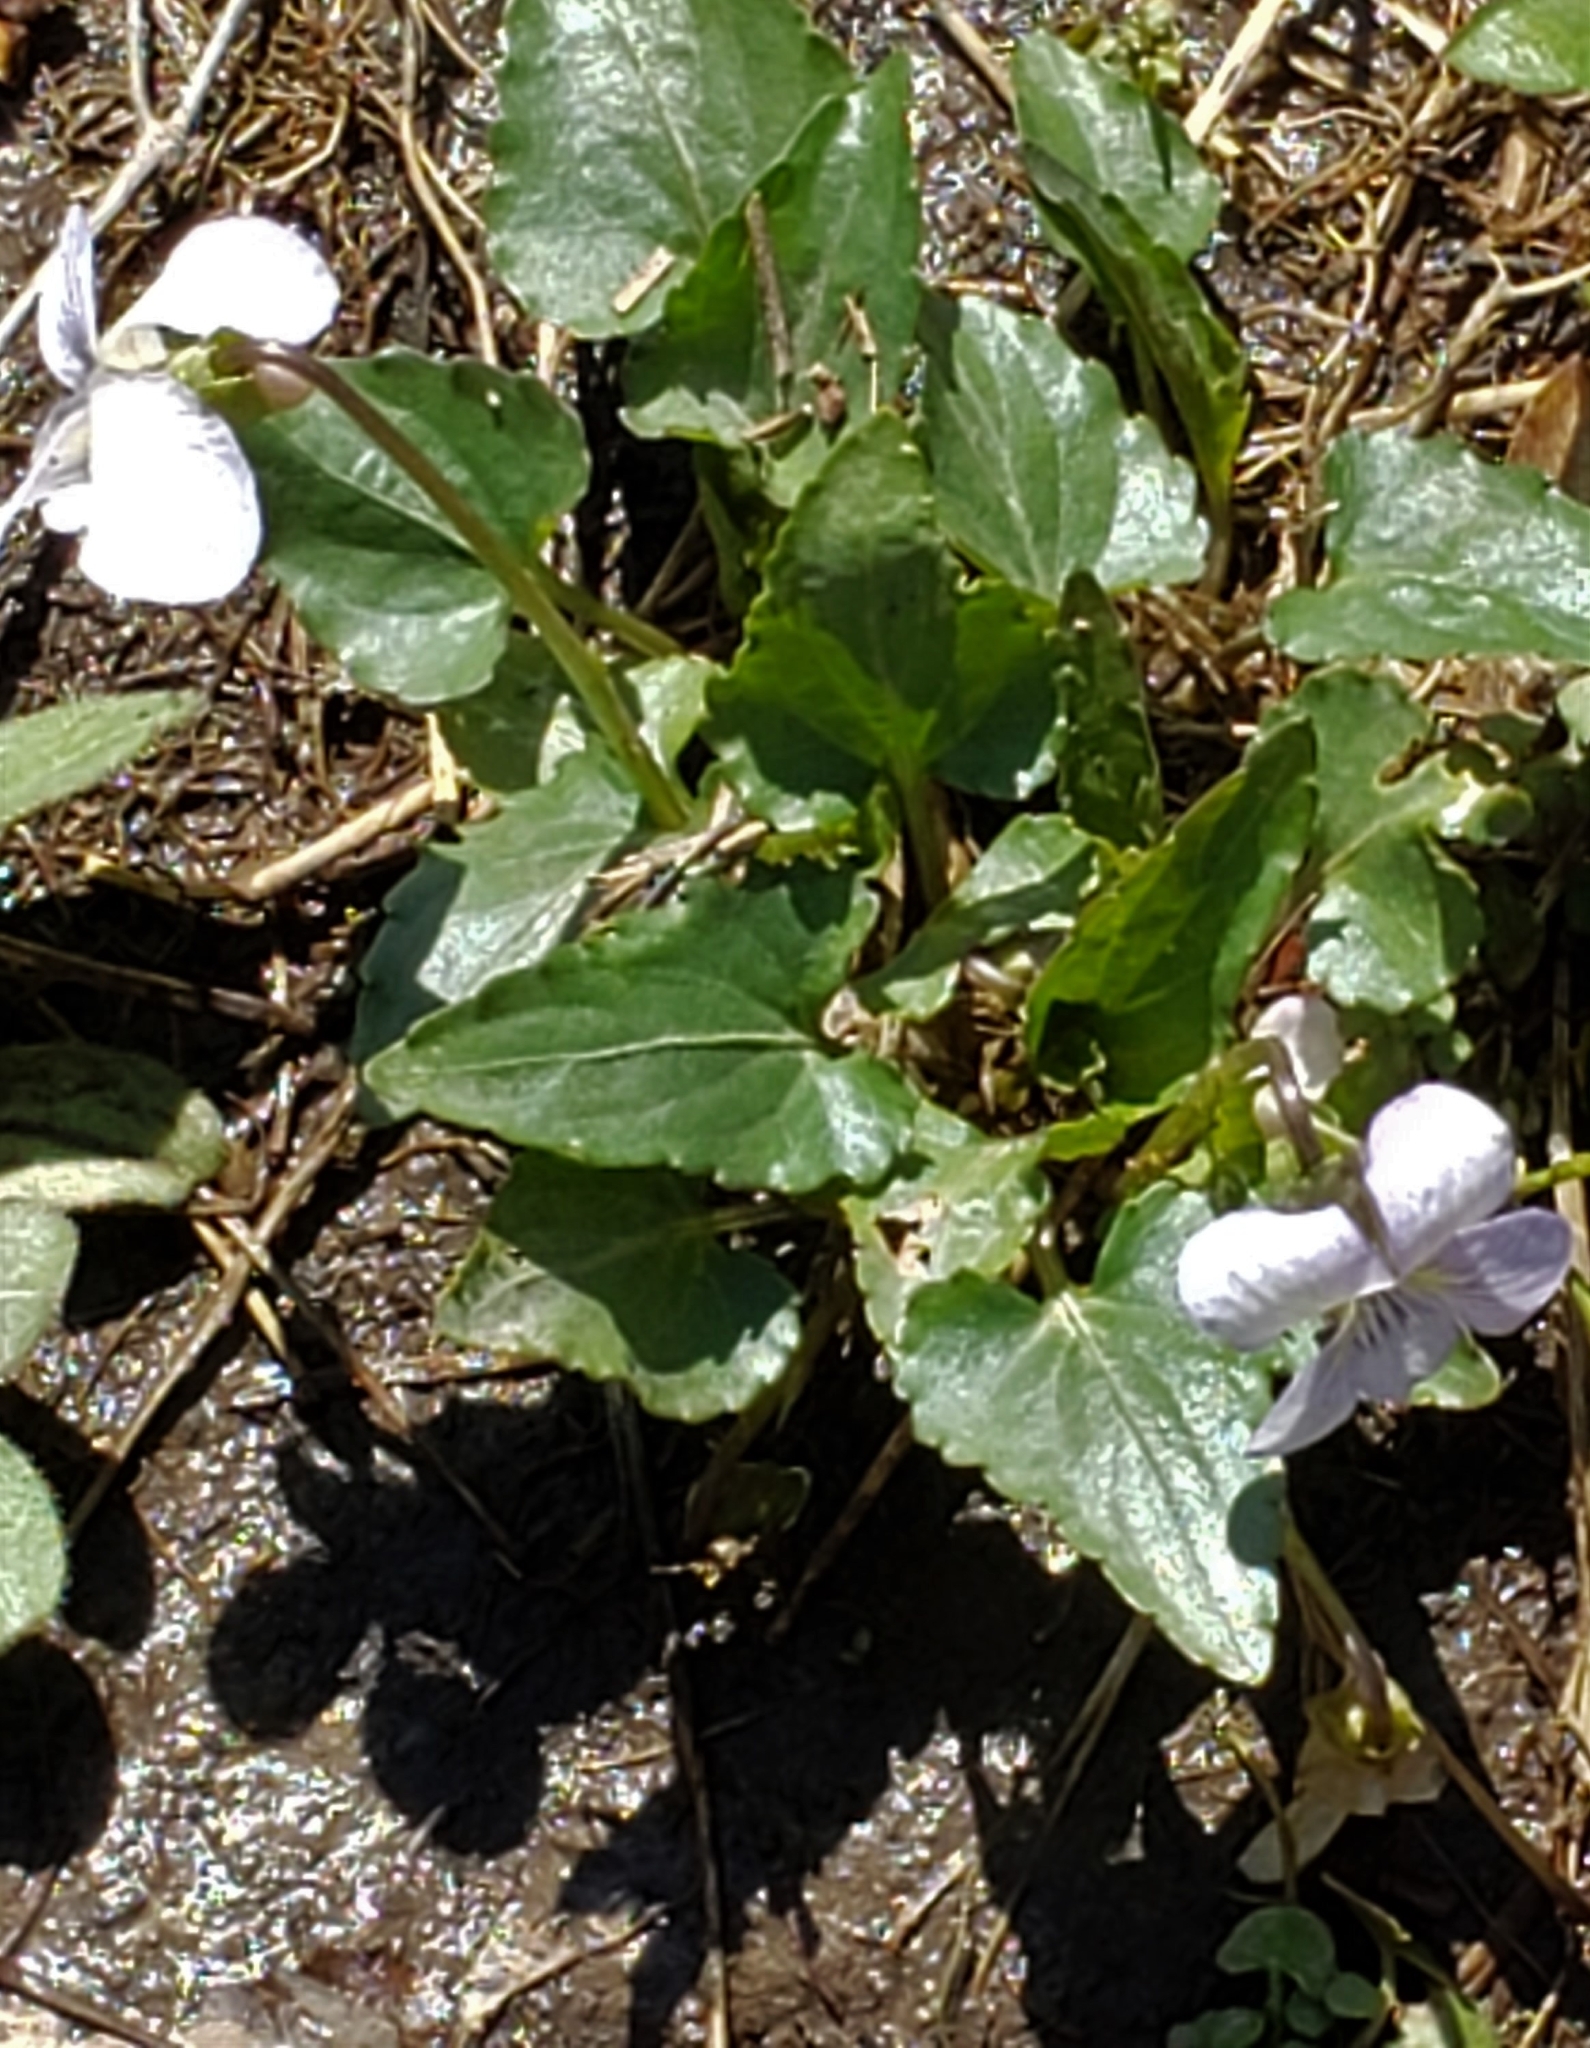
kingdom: Plantae
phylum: Tracheophyta
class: Magnoliopsida
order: Malpighiales
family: Violaceae
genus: Viola
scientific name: Viola missouriensis
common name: Missouri violet
